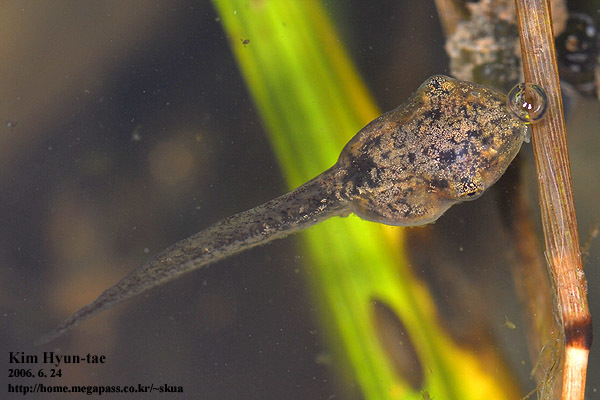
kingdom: Animalia
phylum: Chordata
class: Amphibia
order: Anura
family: Hylidae
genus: Dryophytes
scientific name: Dryophytes japonicus
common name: Japanese treefrog
